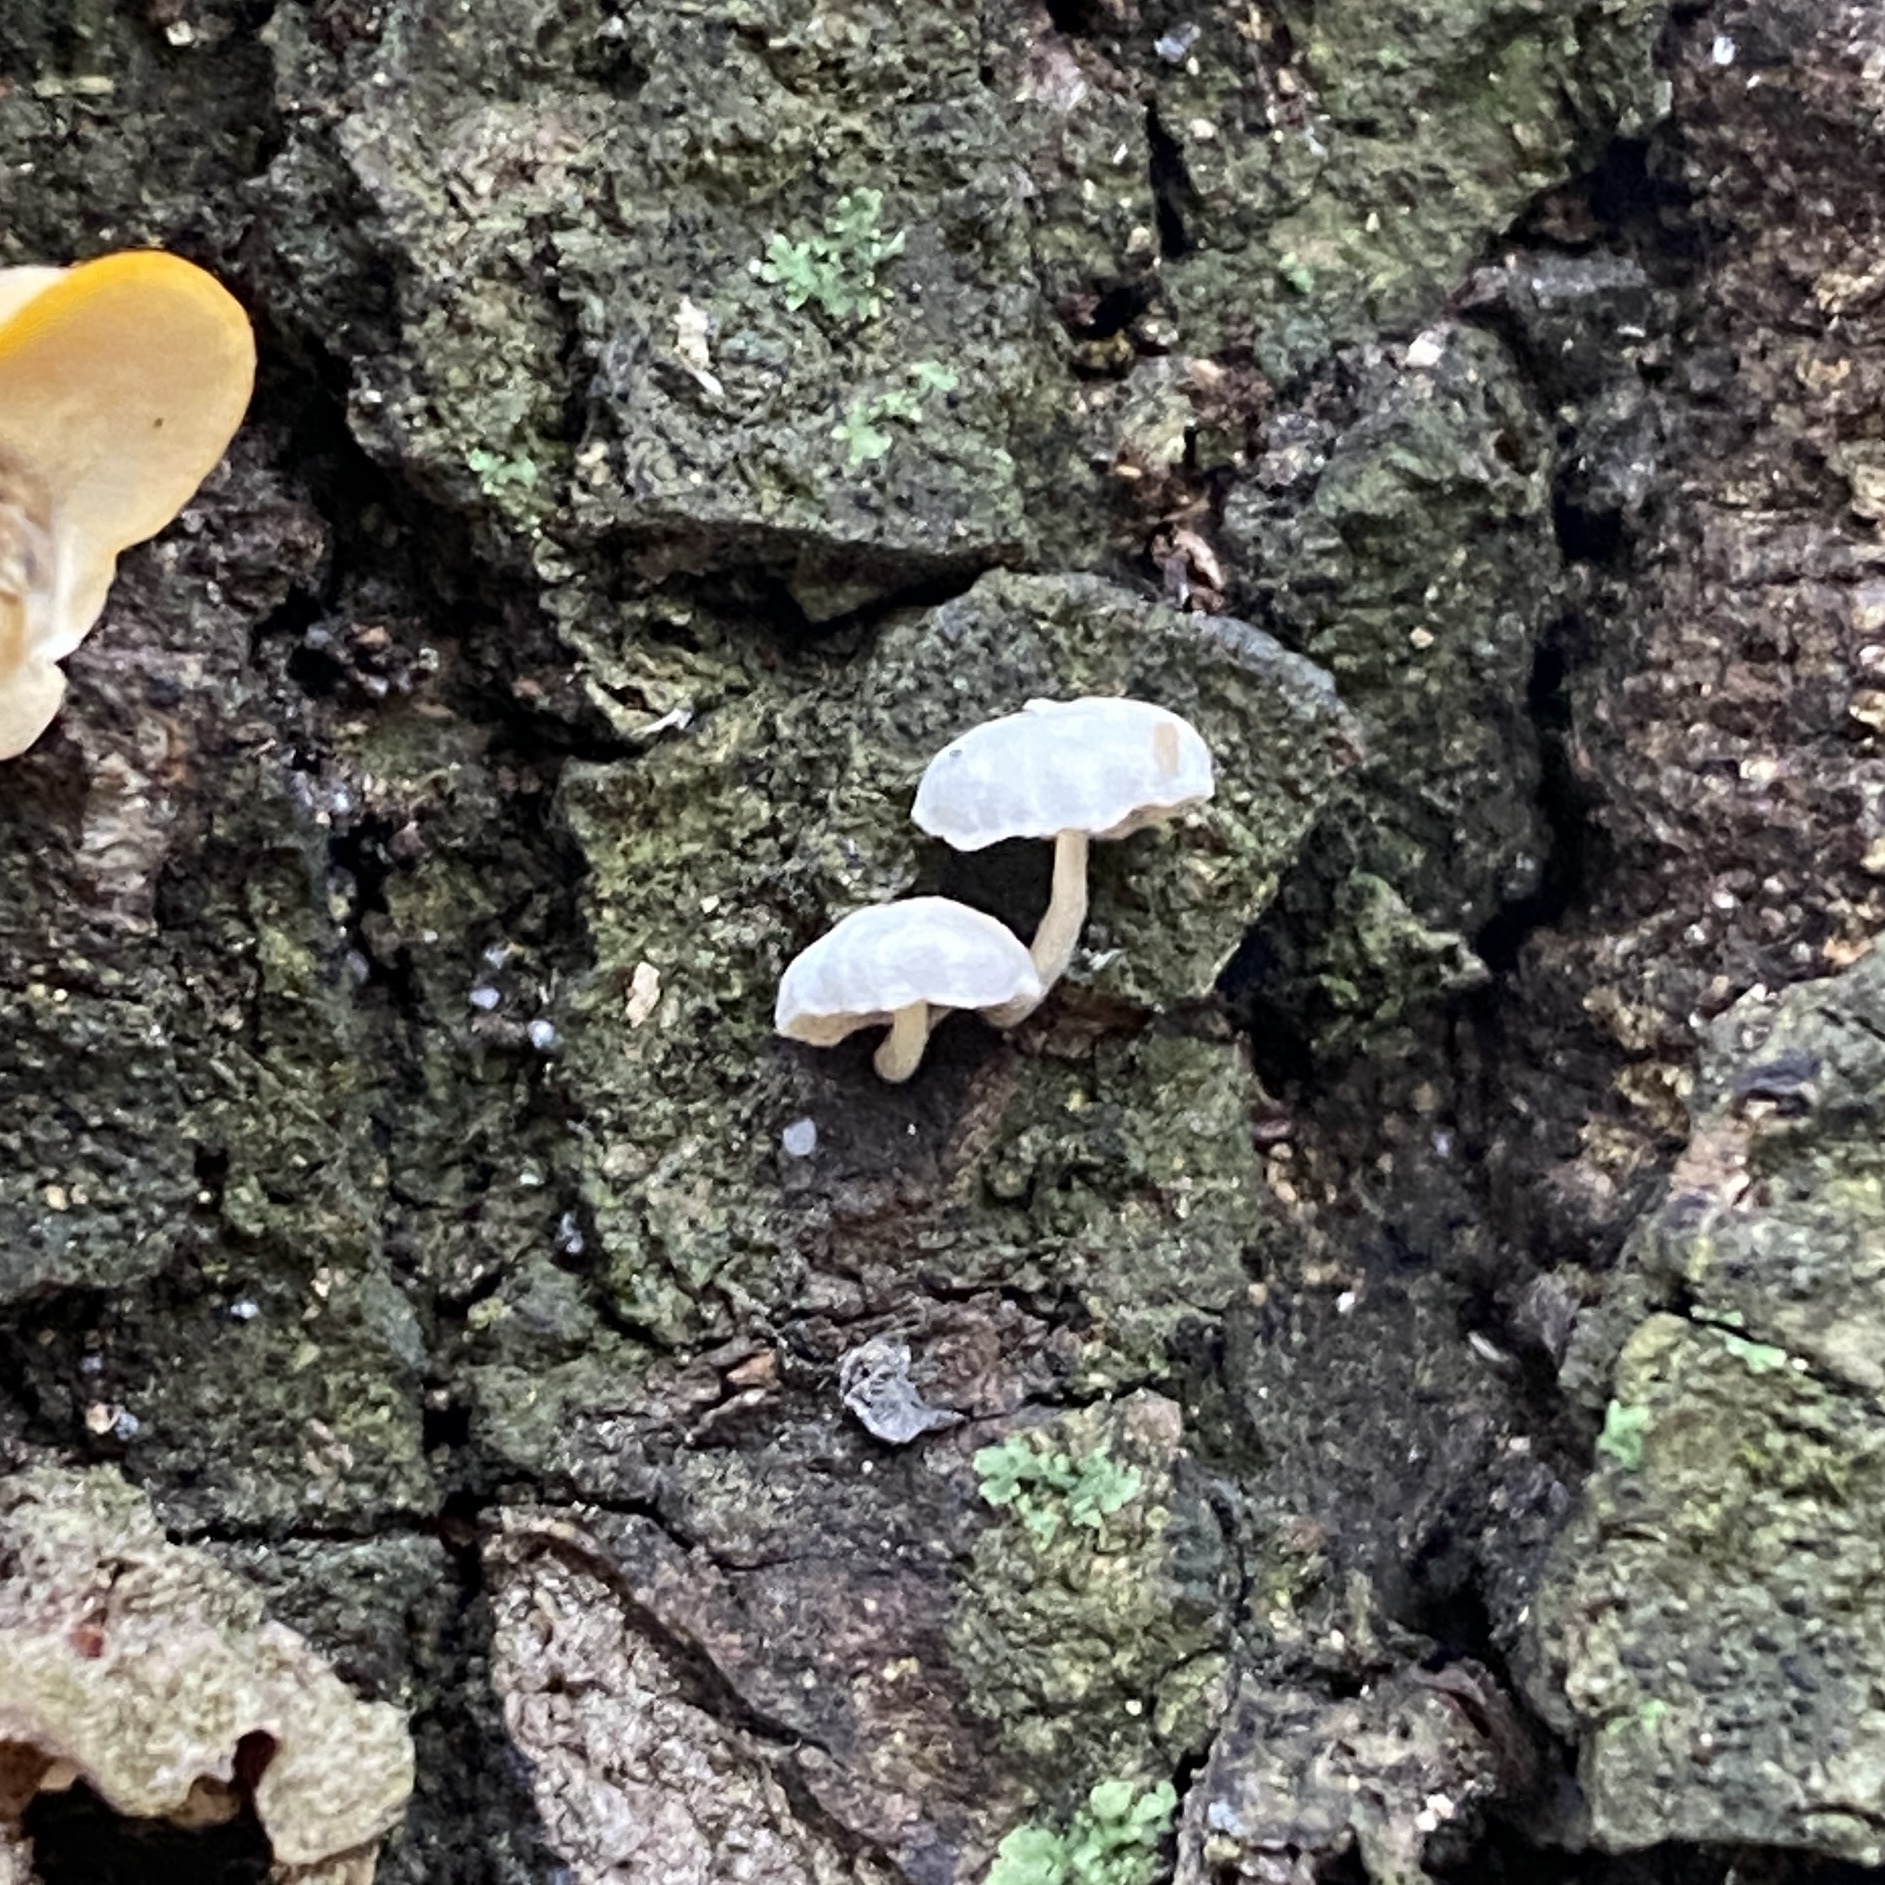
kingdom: Fungi
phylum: Basidiomycota
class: Agaricomycetes
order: Agaricales
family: Mycenaceae
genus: Mycena
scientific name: Mycena
